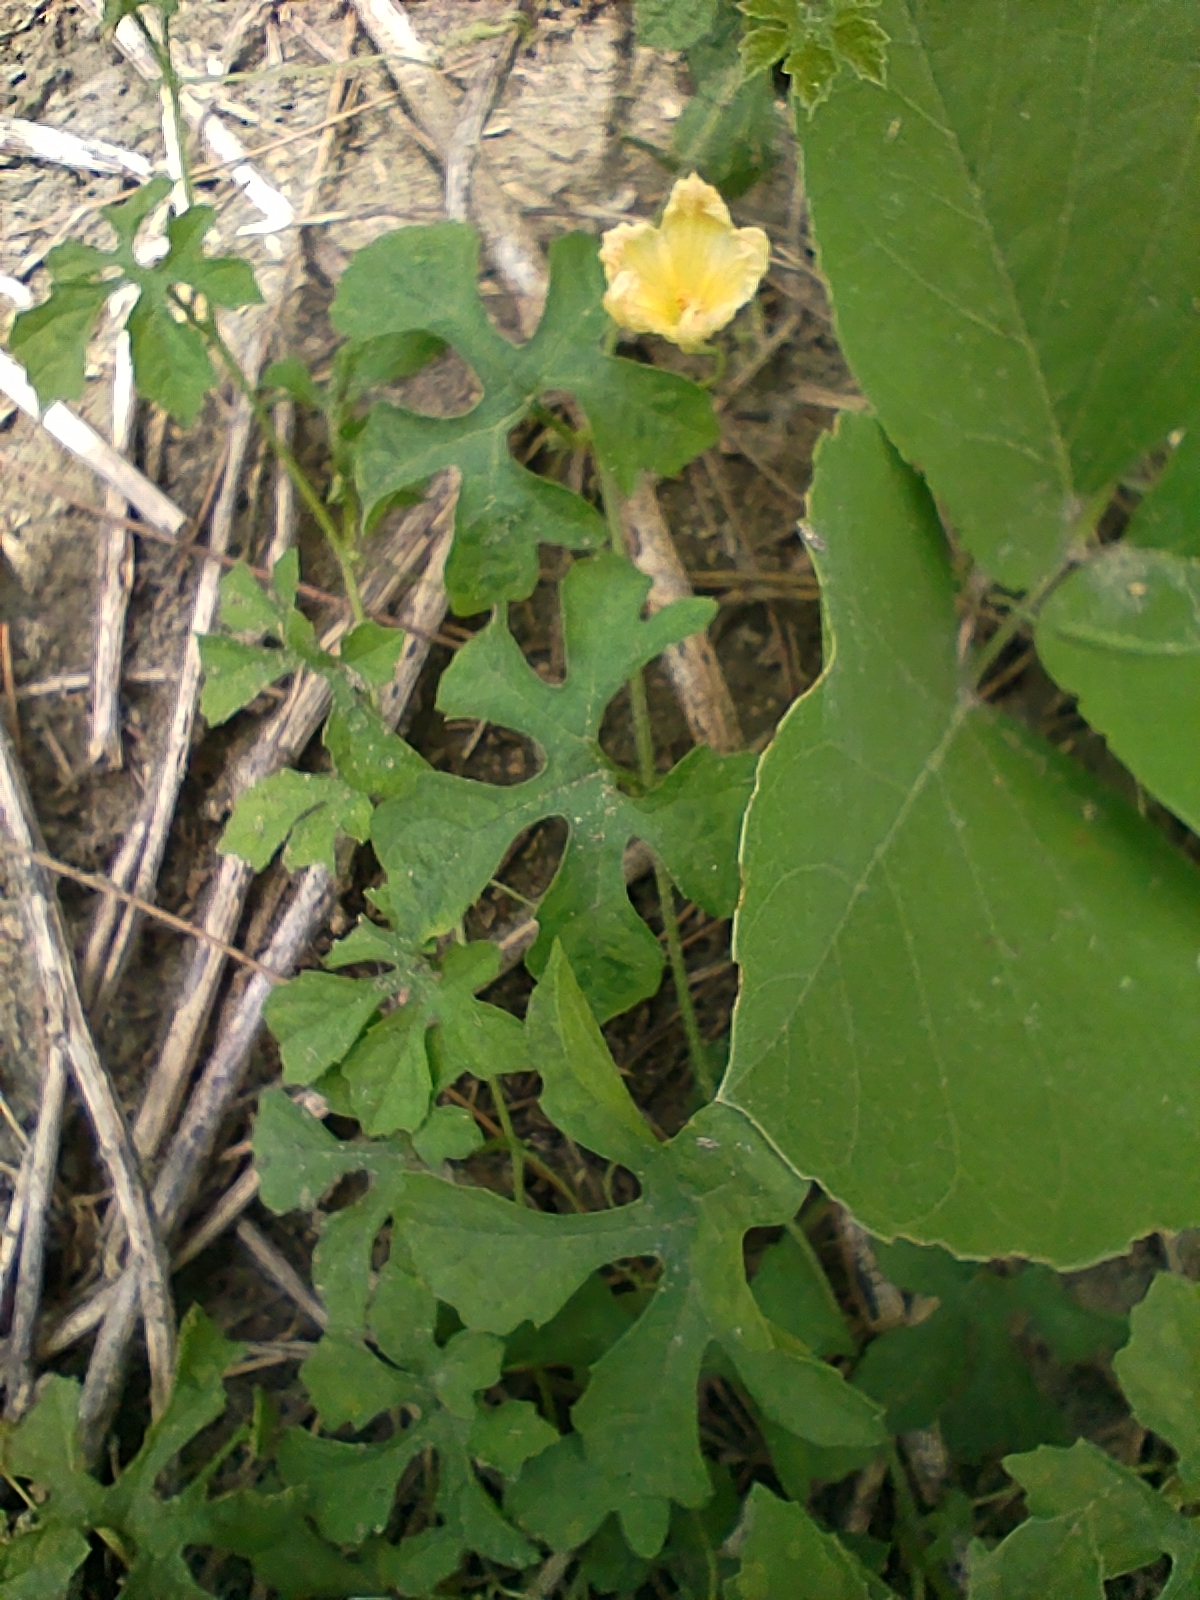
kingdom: Plantae
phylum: Tracheophyta
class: Magnoliopsida
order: Cucurbitales
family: Cucurbitaceae
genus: Momordica
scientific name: Momordica charantia
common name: Balsampear
